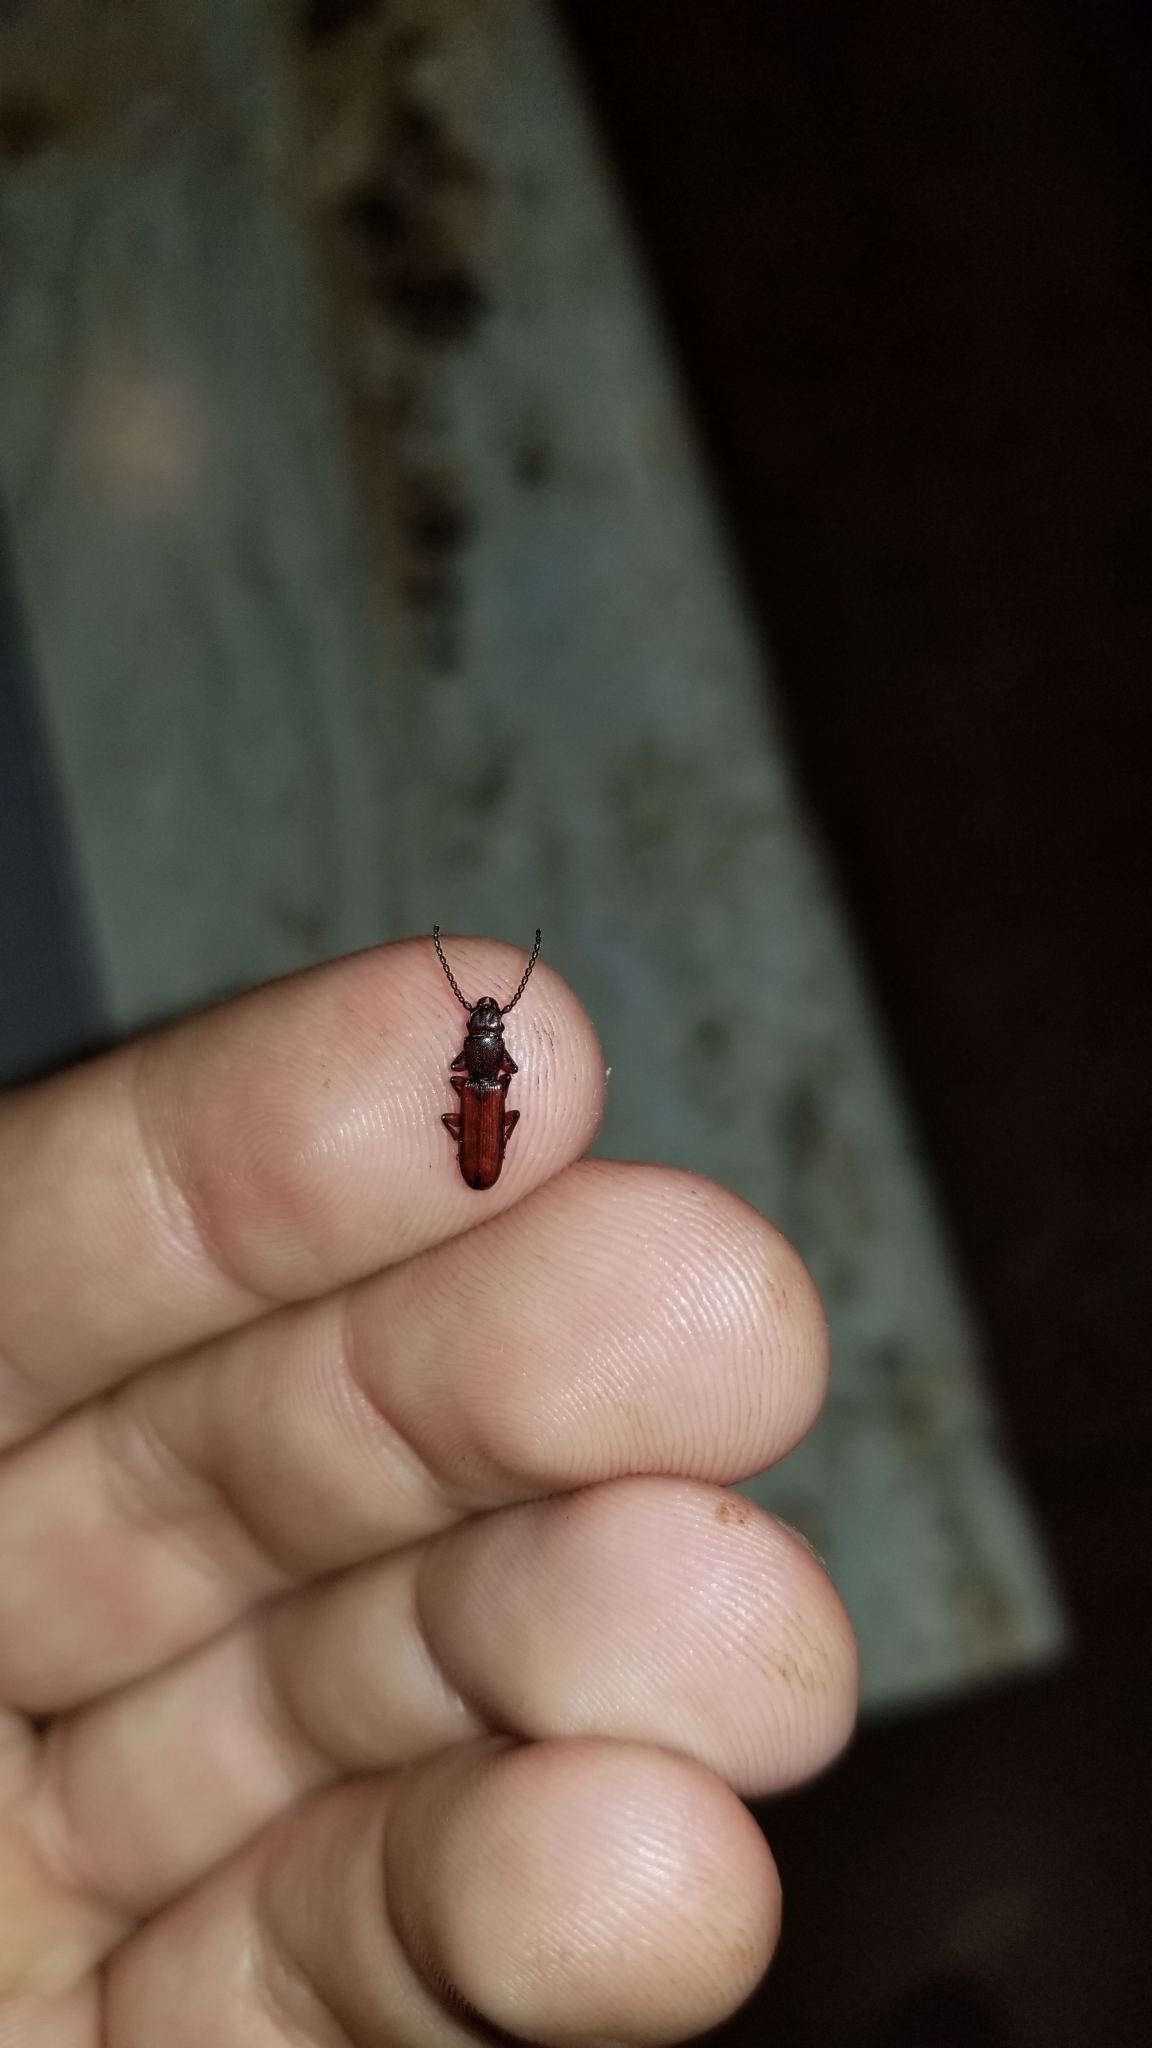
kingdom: Animalia
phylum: Arthropoda
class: Insecta
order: Coleoptera
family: Passandridae
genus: Catogenus
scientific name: Catogenus rufus
